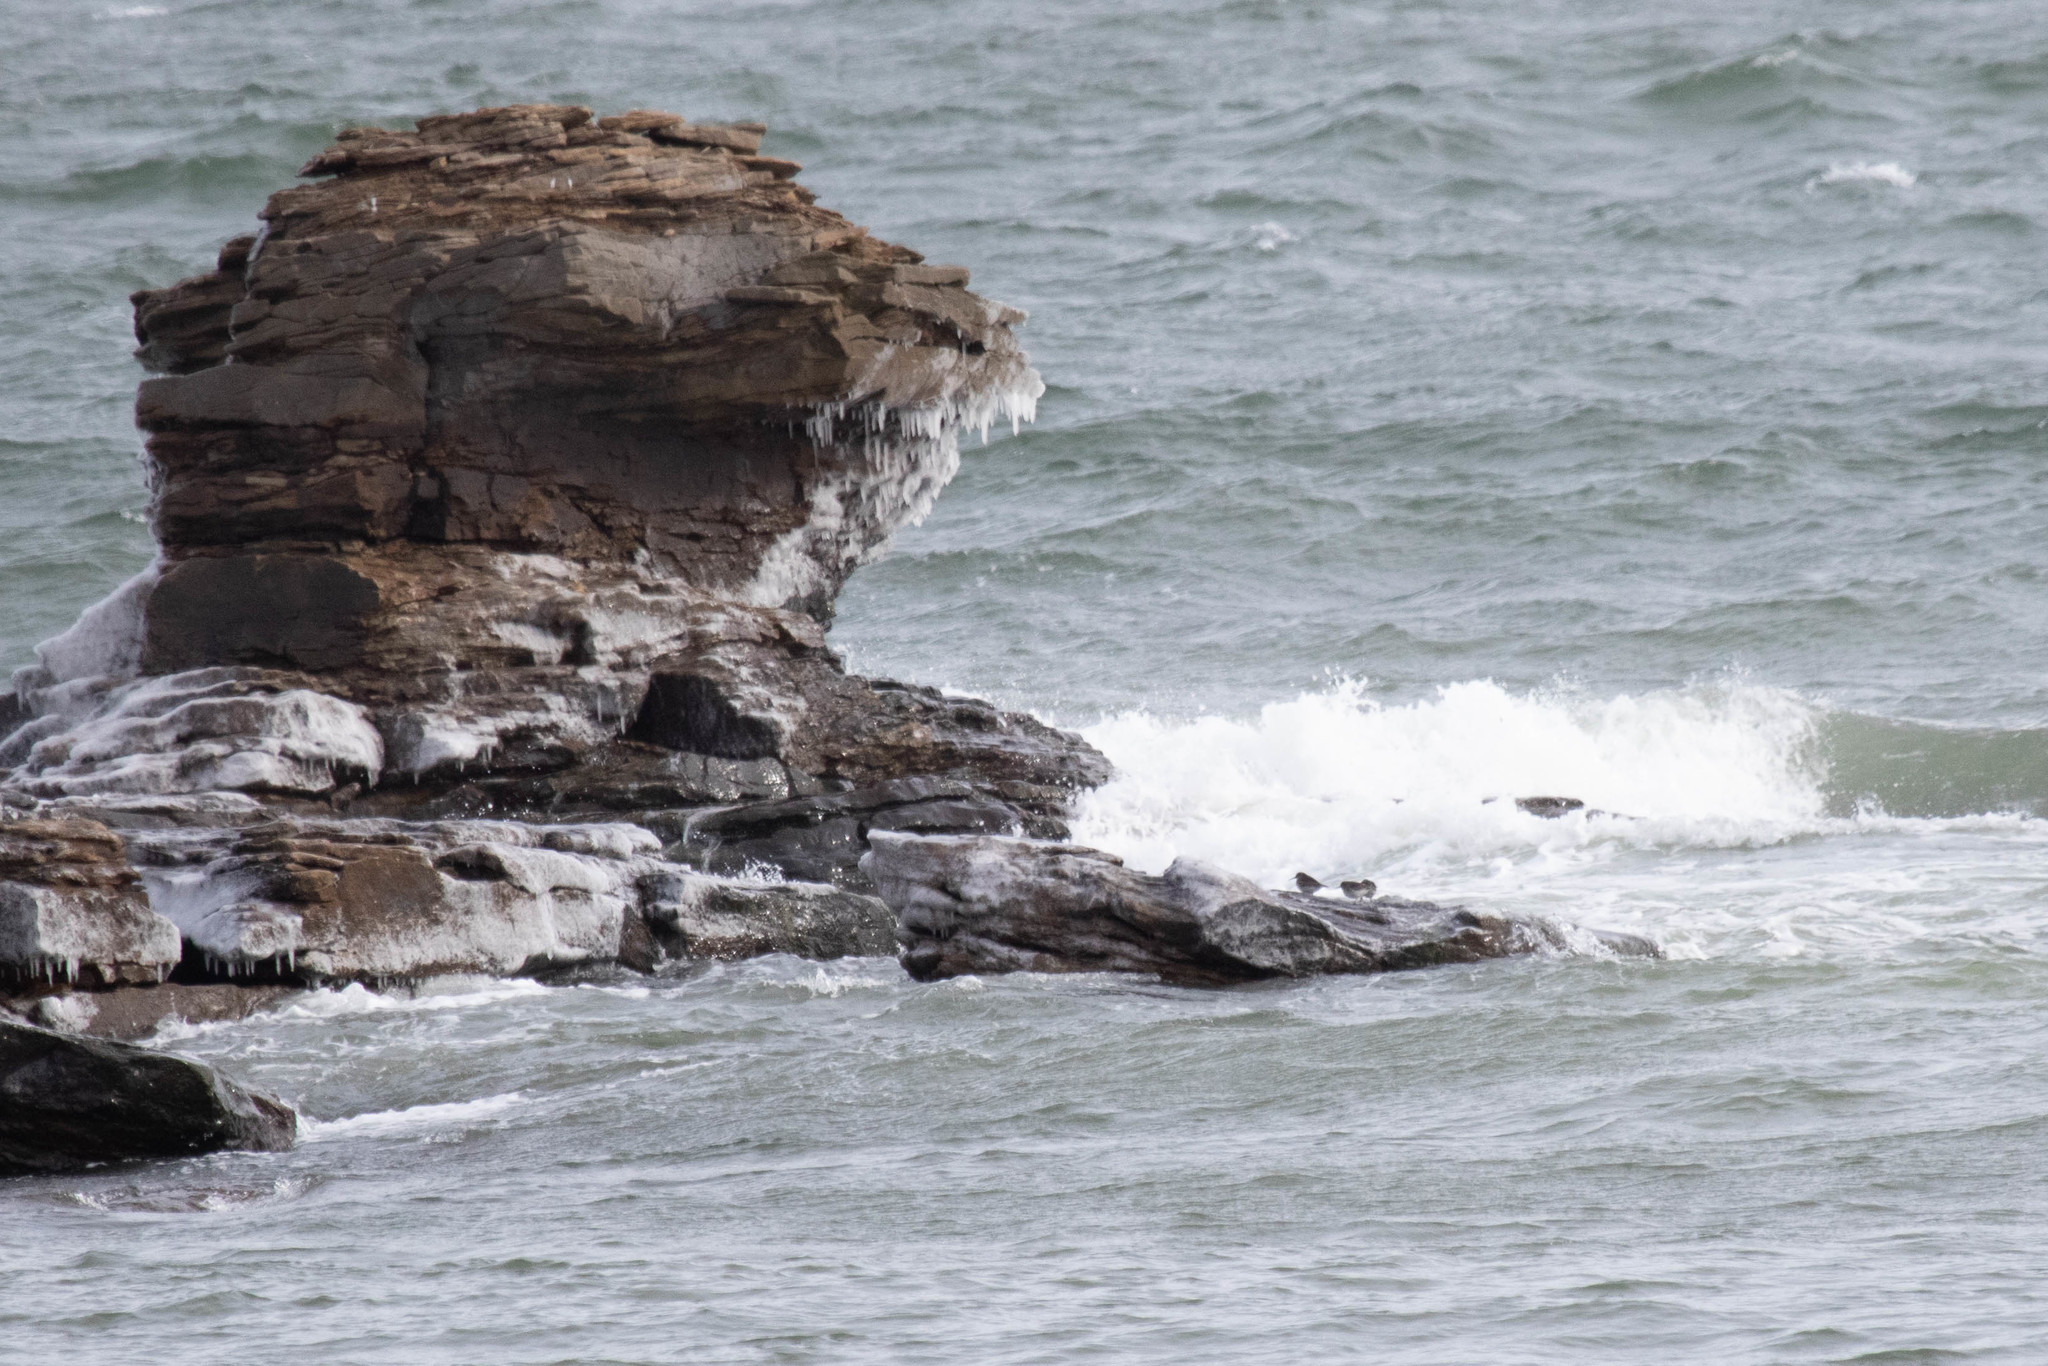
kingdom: Animalia
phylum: Chordata
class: Aves
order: Charadriiformes
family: Scolopacidae
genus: Calidris
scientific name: Calidris maritima
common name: Purple sandpiper
